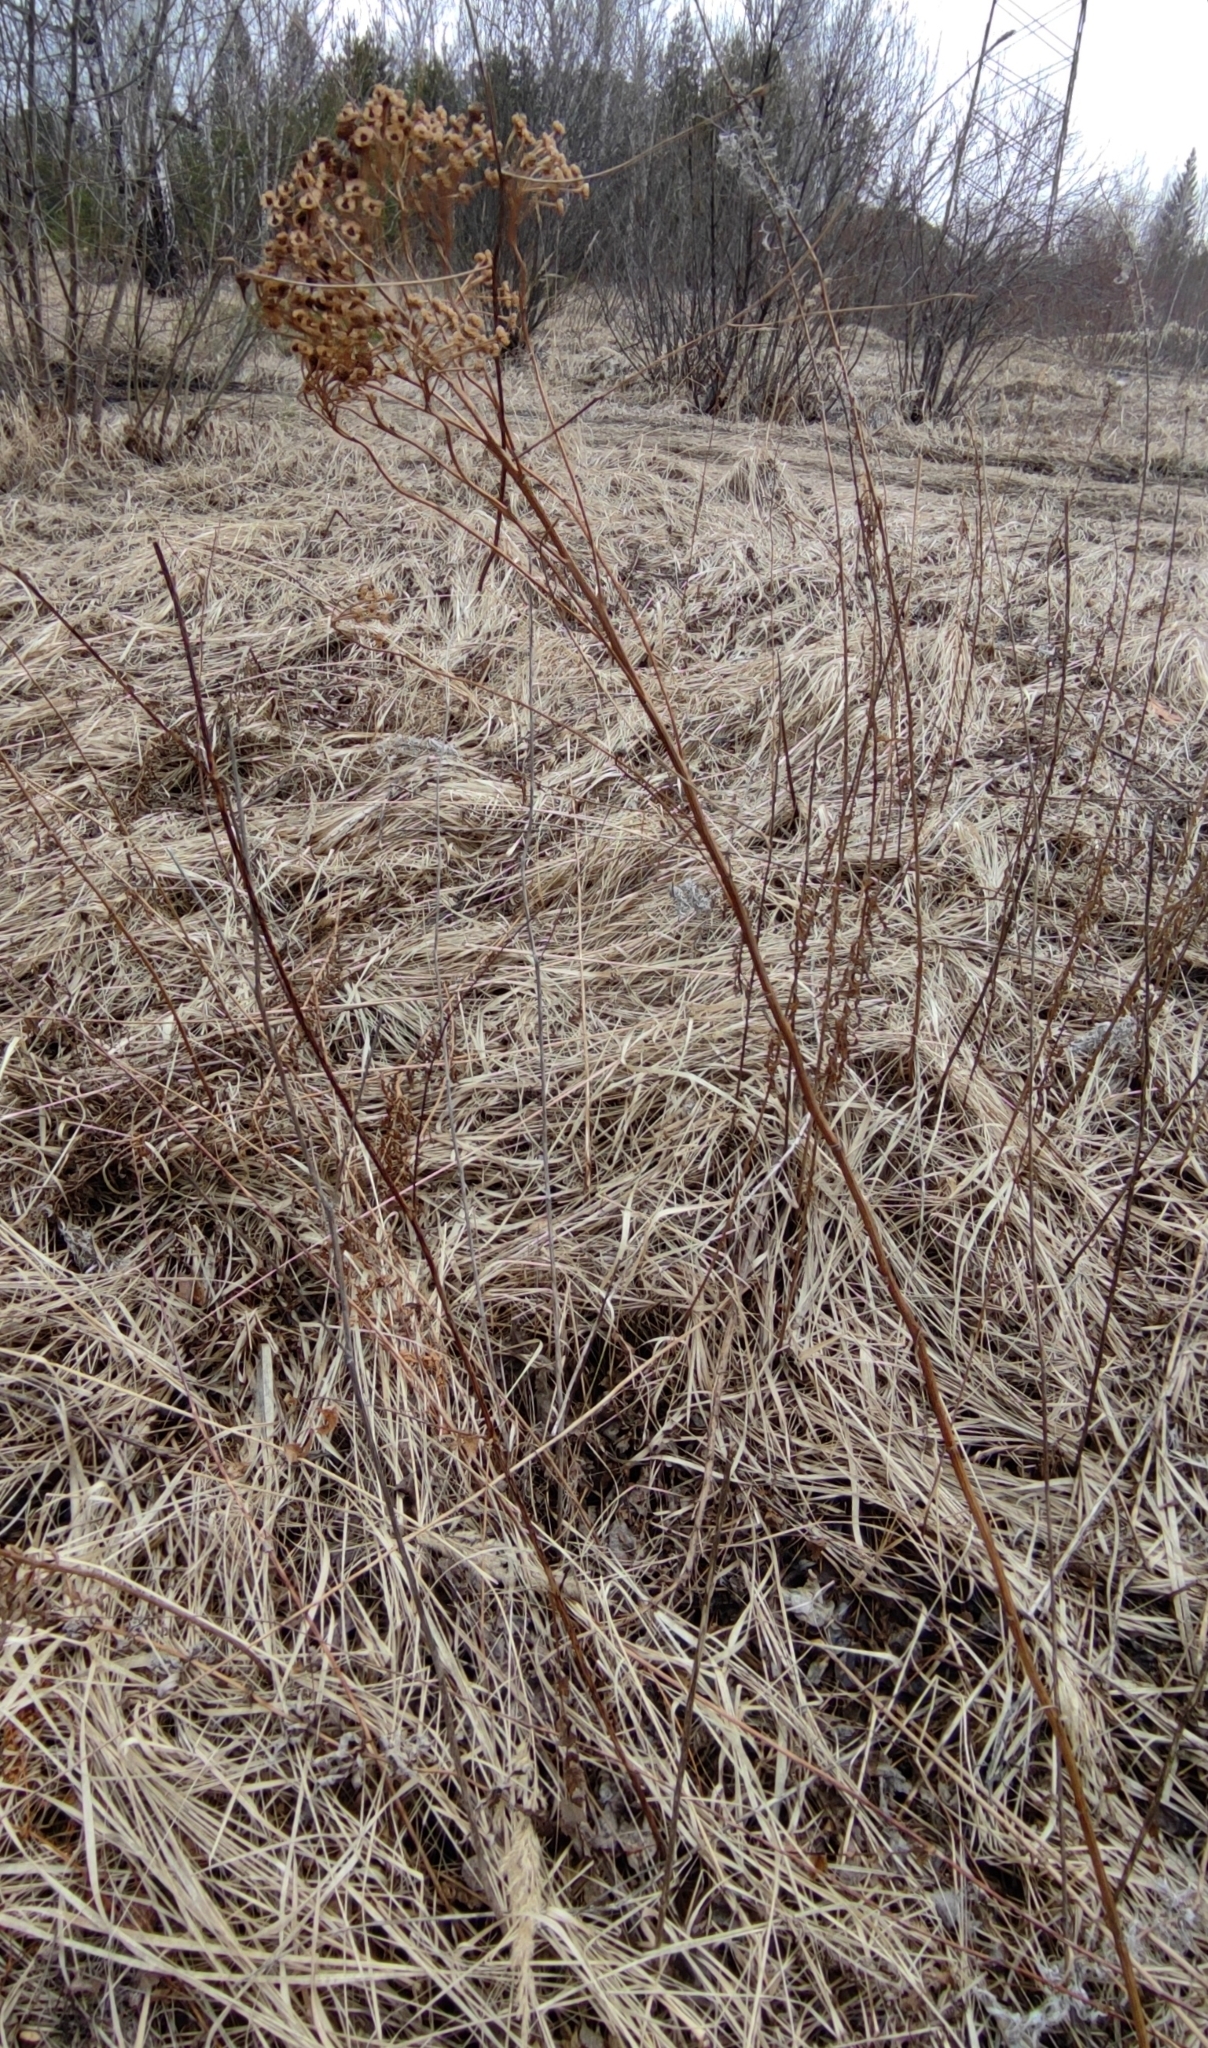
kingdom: Plantae
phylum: Tracheophyta
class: Magnoliopsida
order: Asterales
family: Asteraceae
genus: Tanacetum
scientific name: Tanacetum vulgare
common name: Common tansy
